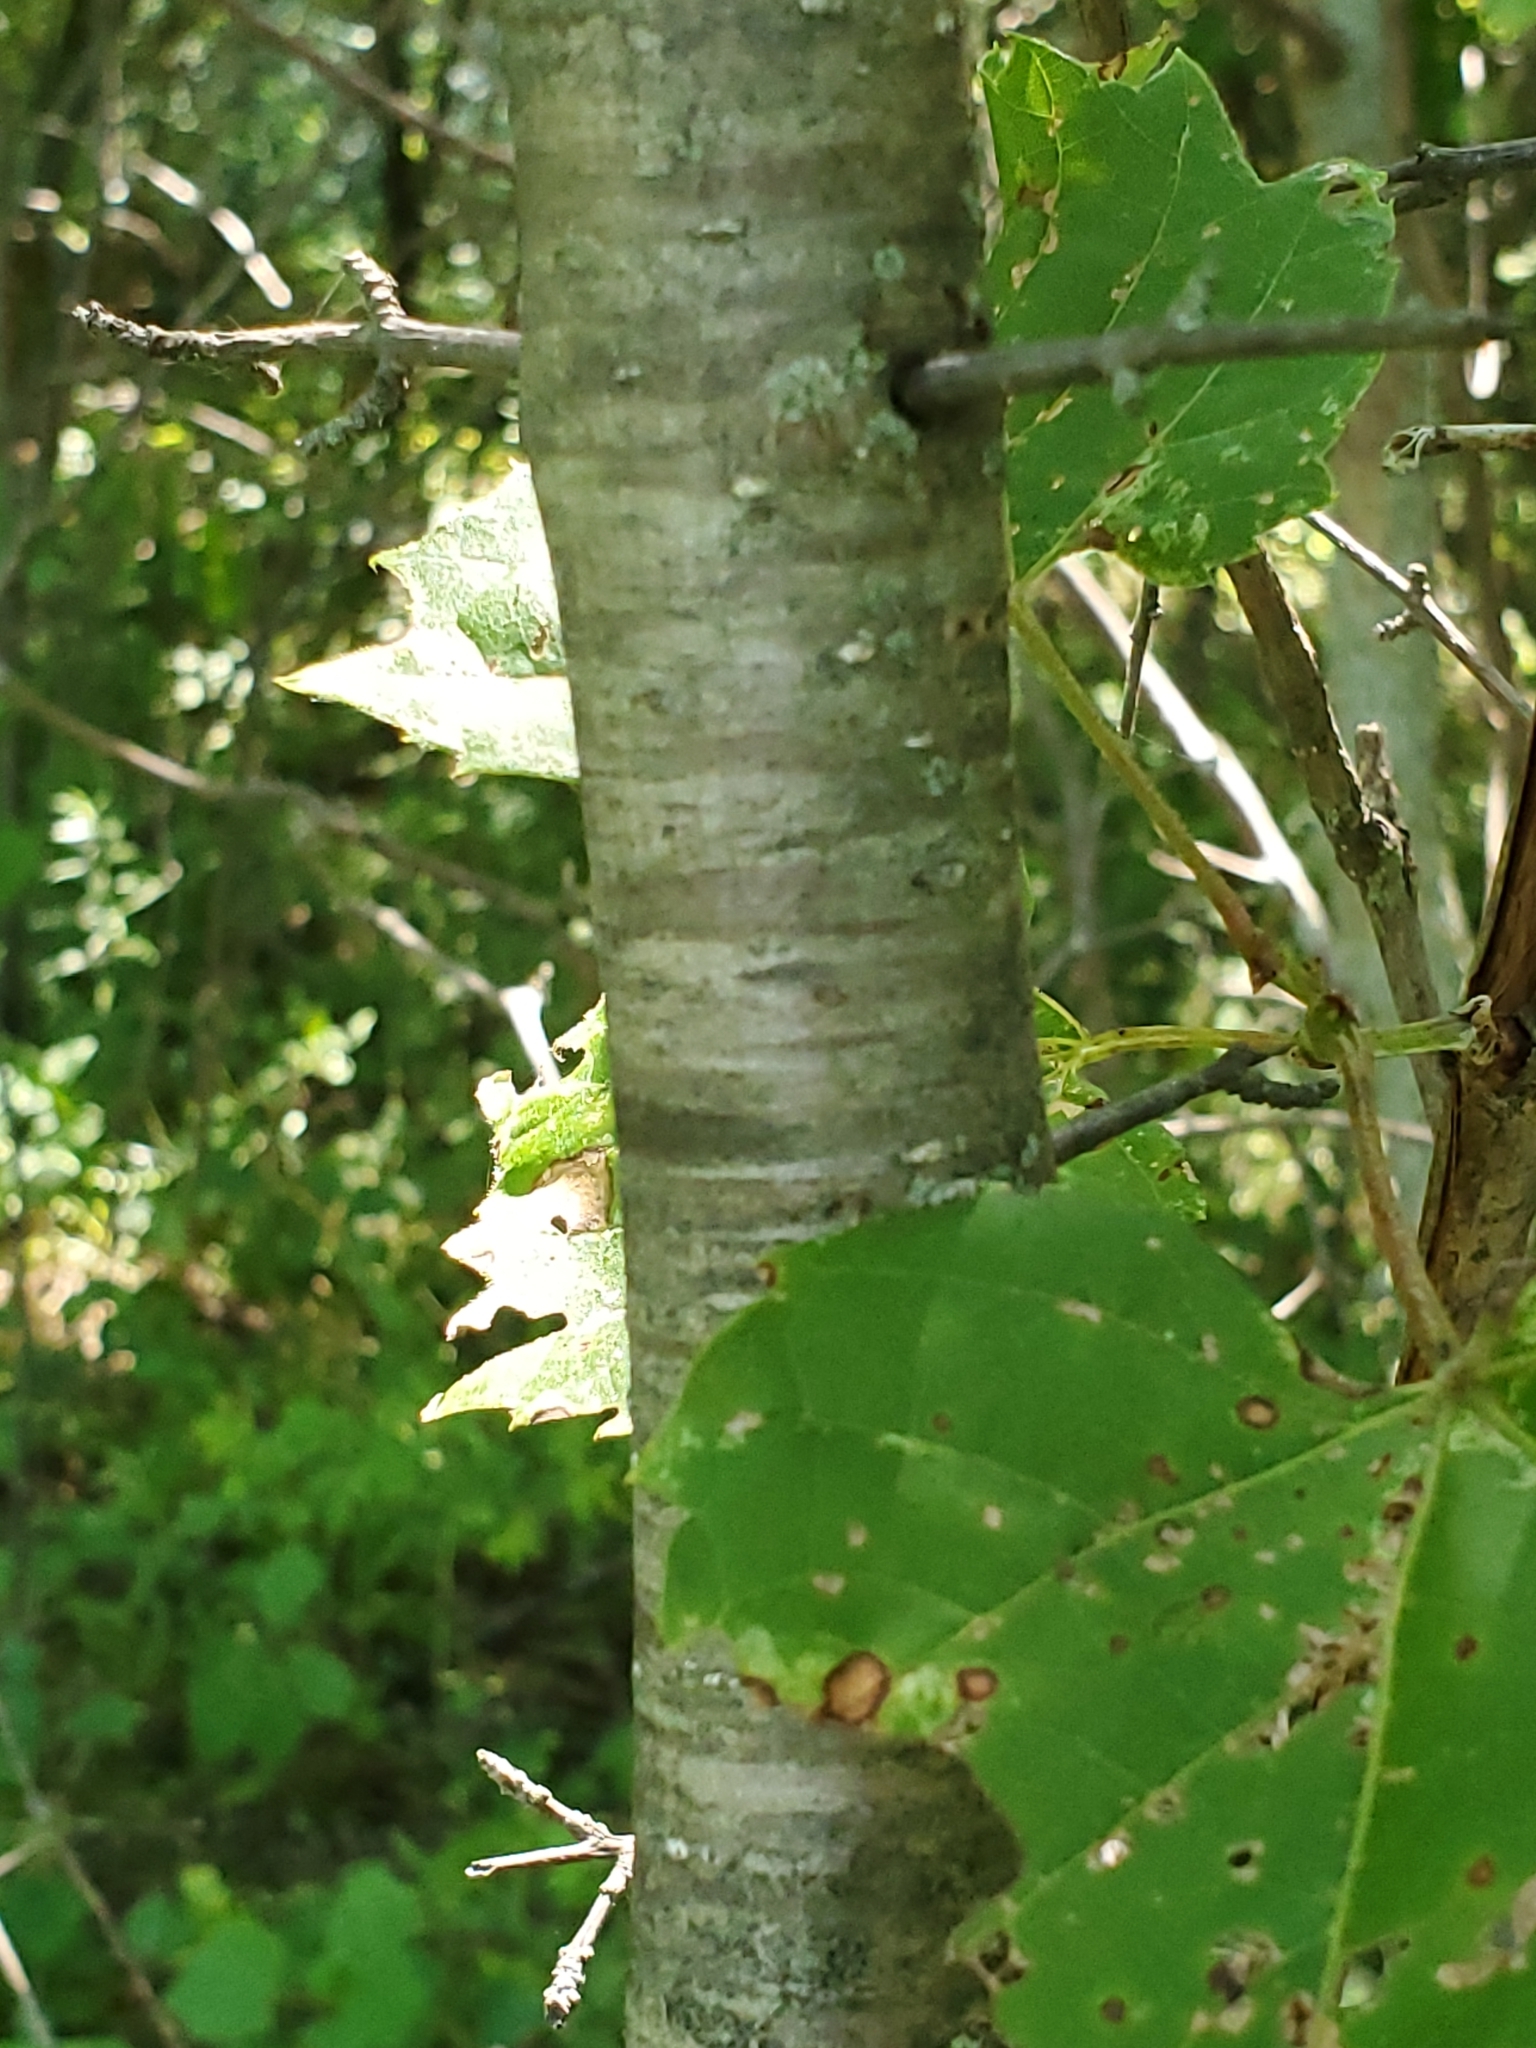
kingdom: Plantae
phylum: Tracheophyta
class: Magnoliopsida
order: Rosales
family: Rhamnaceae
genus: Rhamnus
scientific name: Rhamnus cathartica
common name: Common buckthorn
